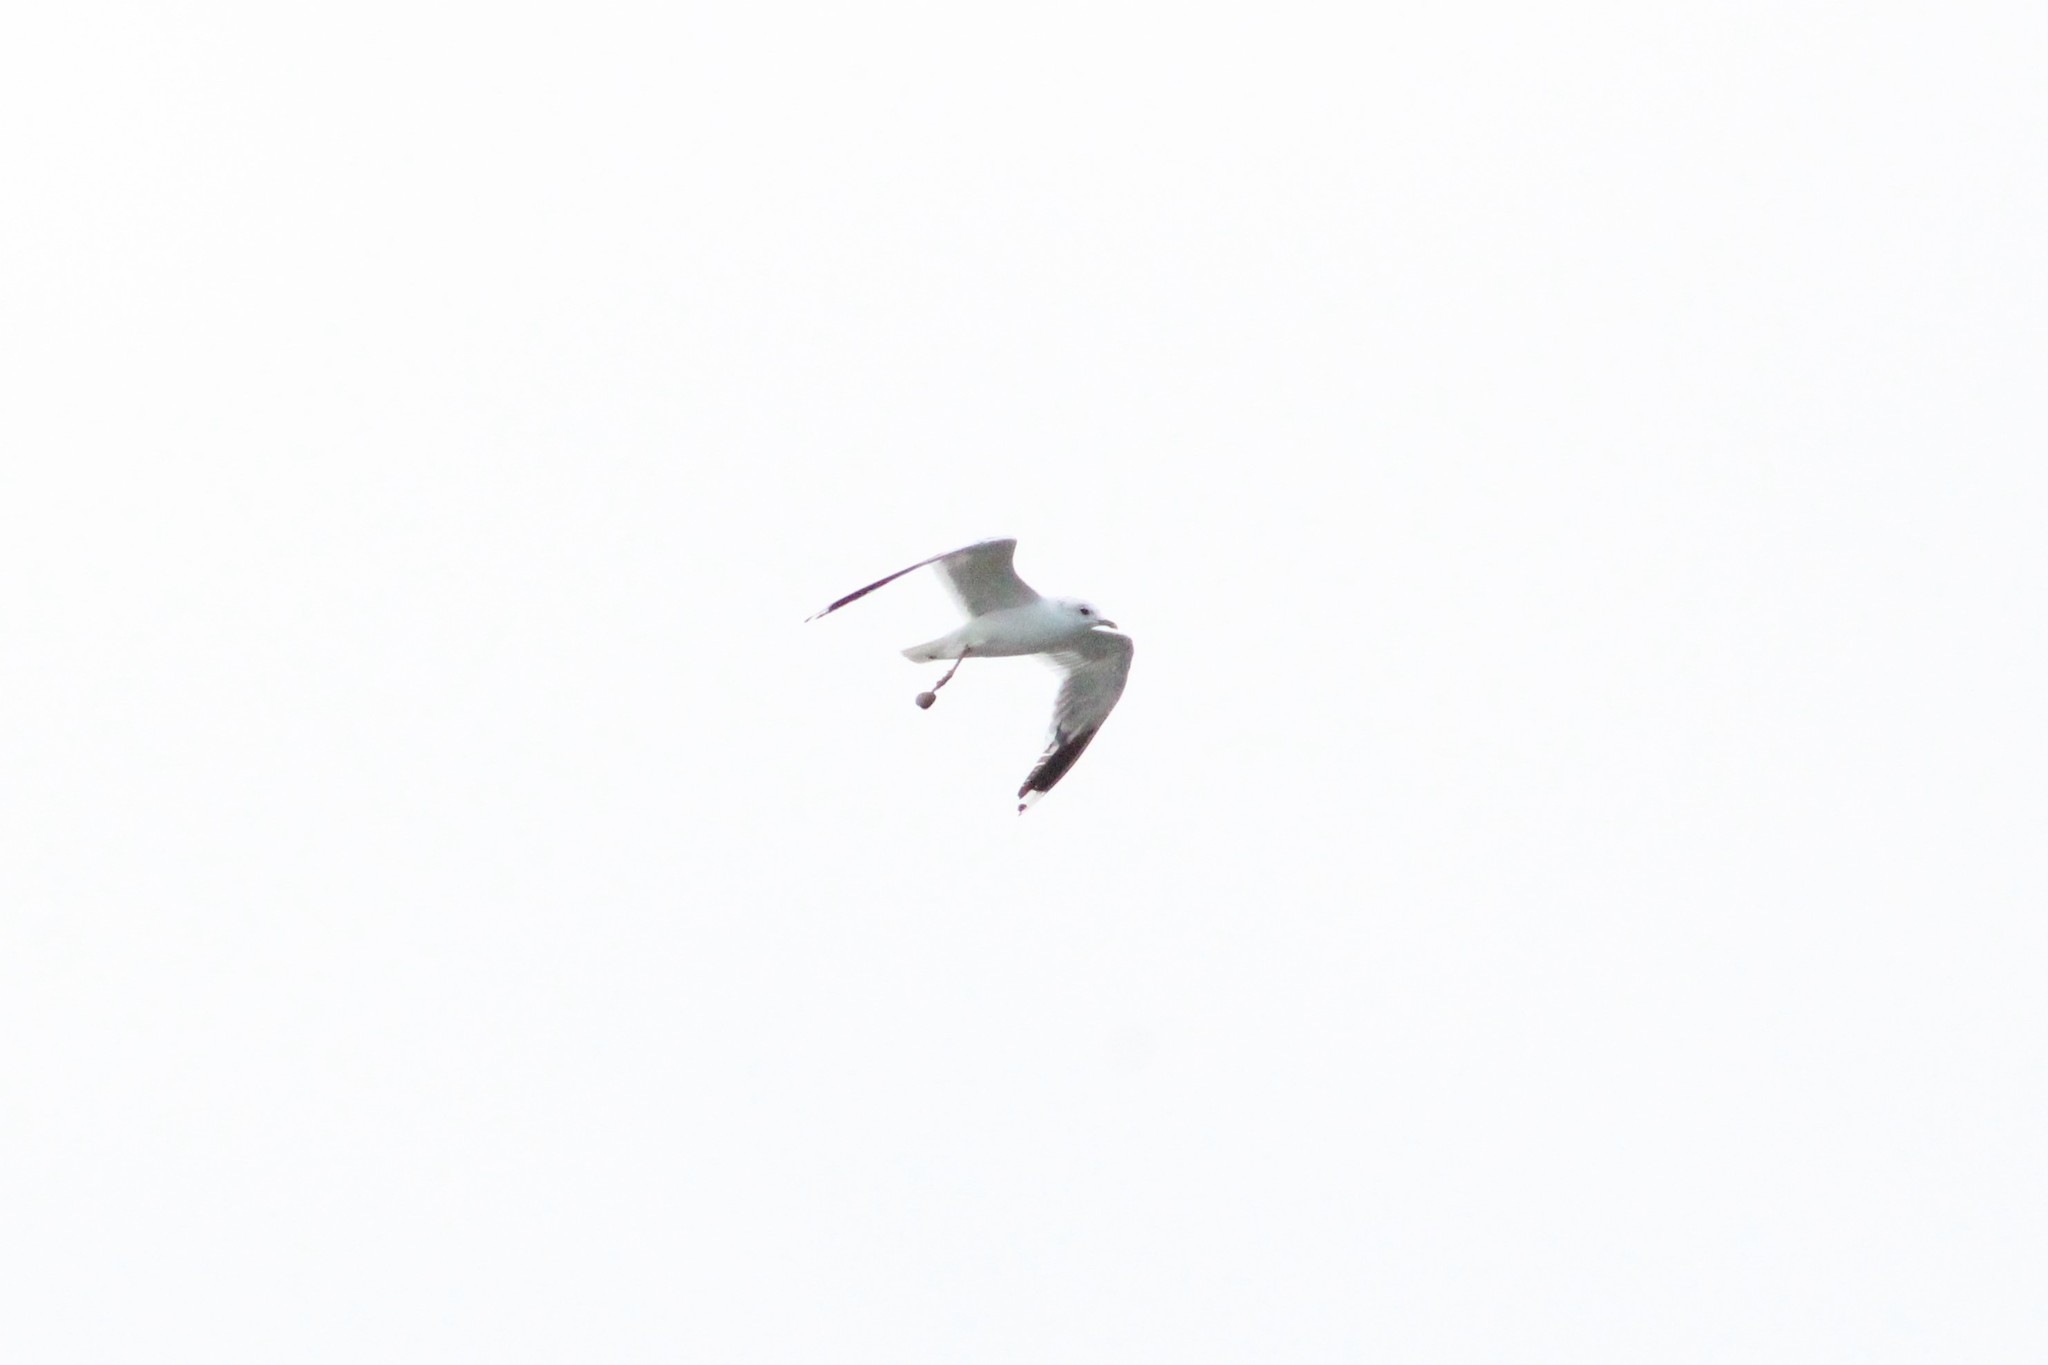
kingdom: Animalia
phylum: Chordata
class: Aves
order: Charadriiformes
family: Laridae
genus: Larus
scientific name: Larus canus
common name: Mew gull
